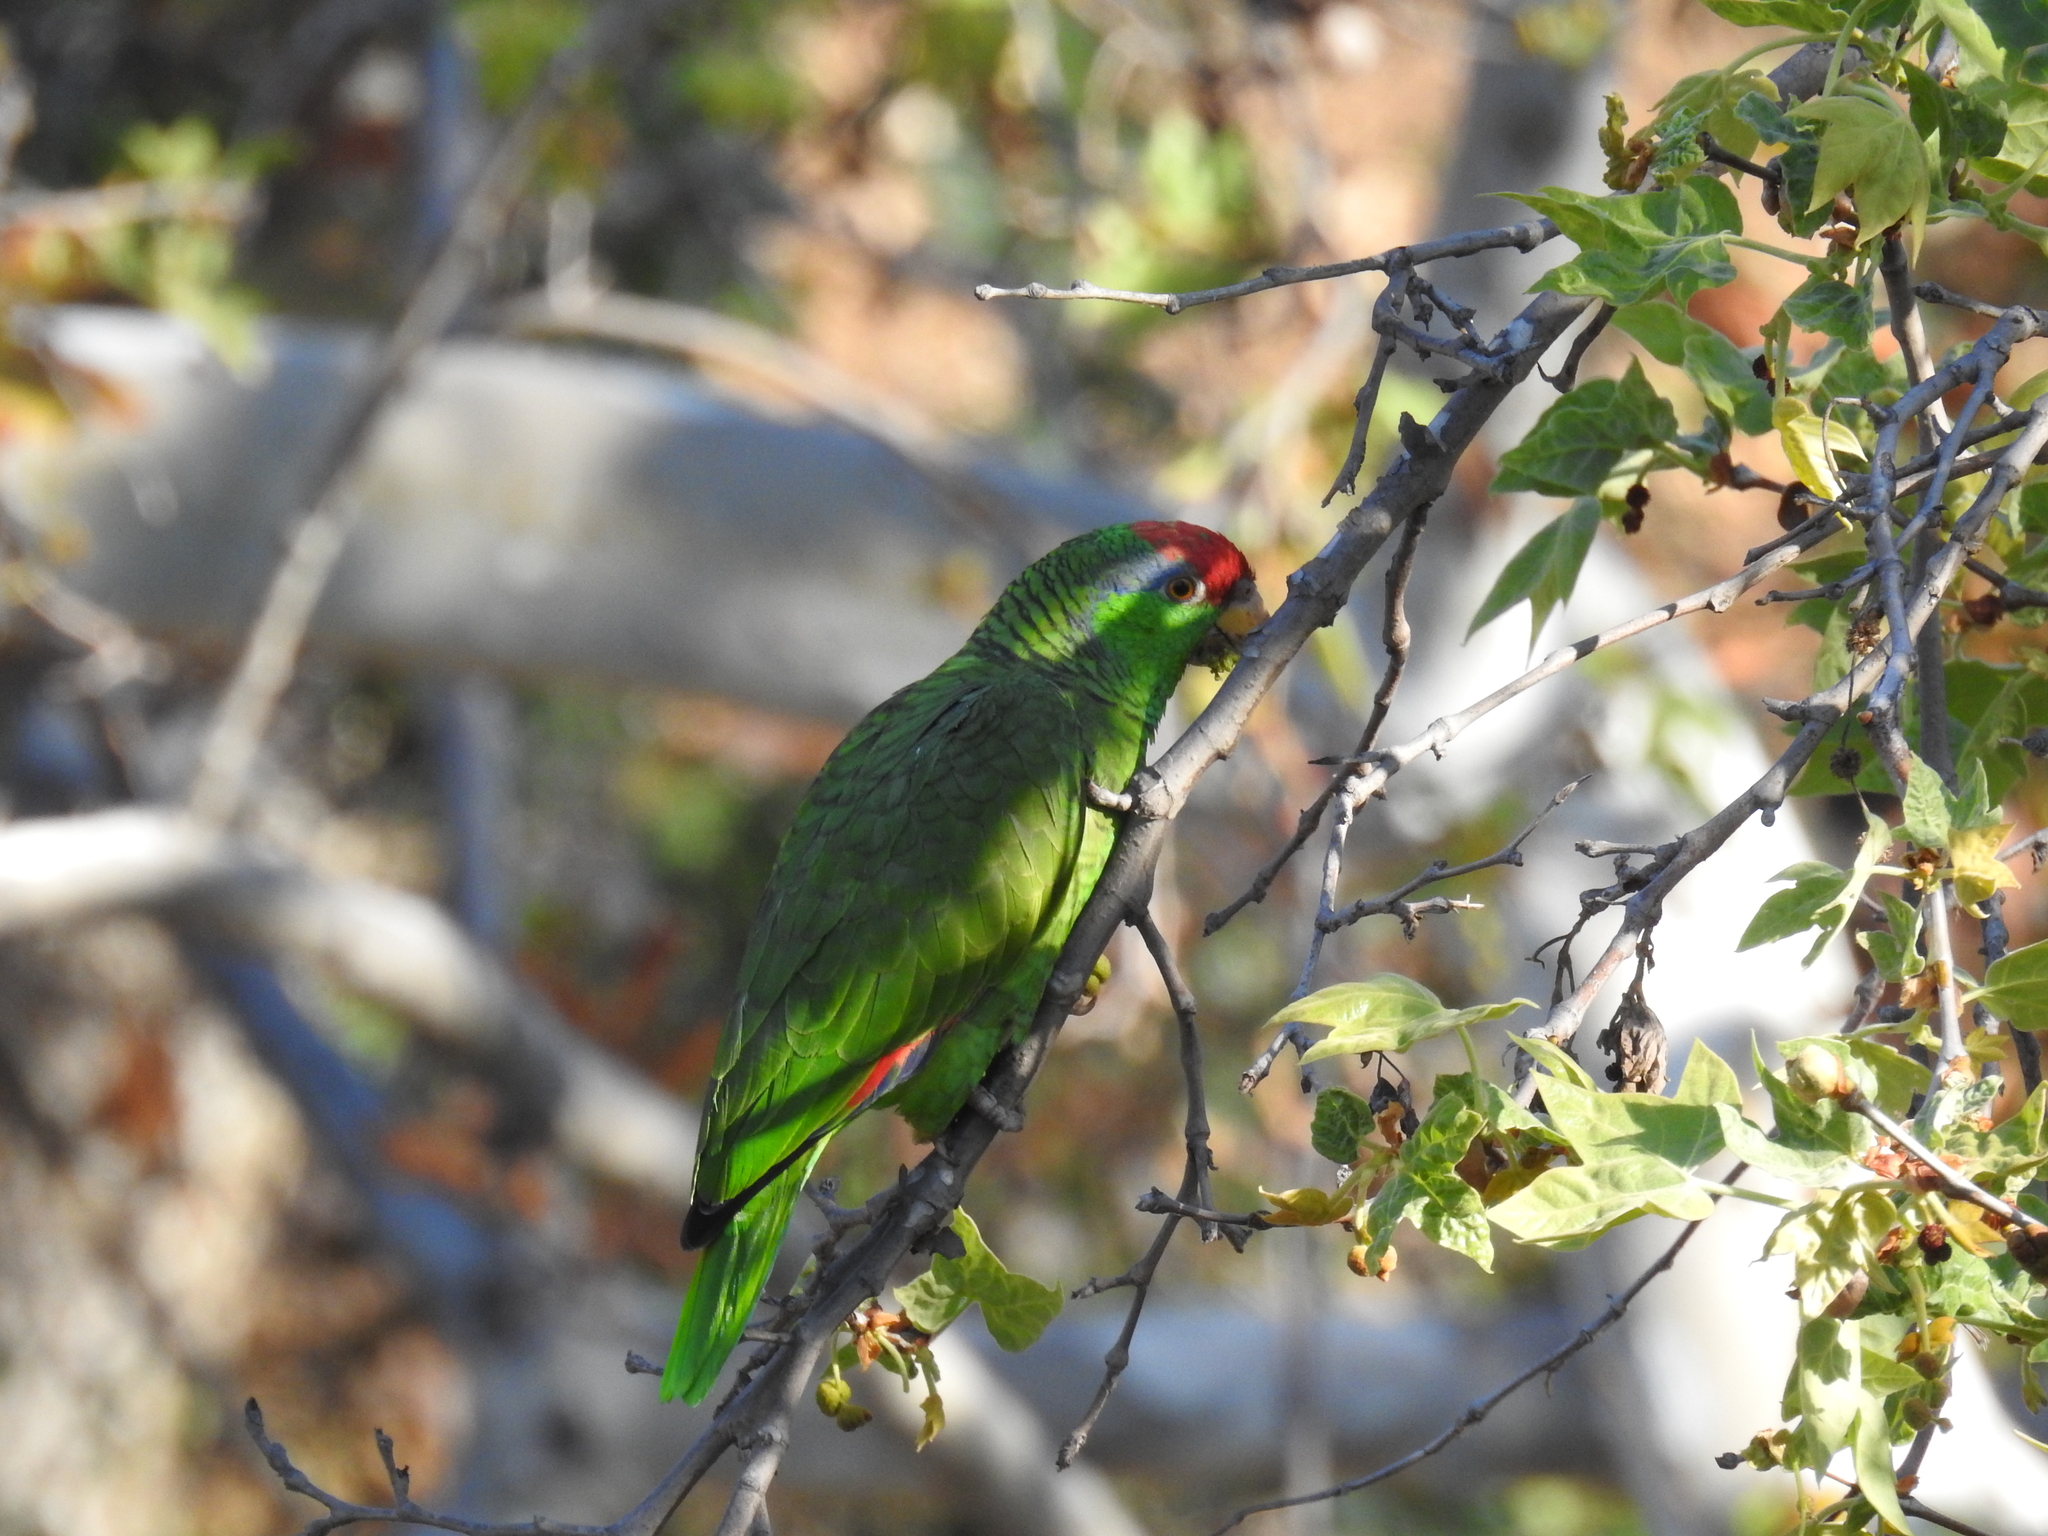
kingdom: Animalia
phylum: Chordata
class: Aves
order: Psittaciformes
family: Psittacidae
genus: Amazona
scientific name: Amazona viridigenalis
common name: Red-crowned amazon
